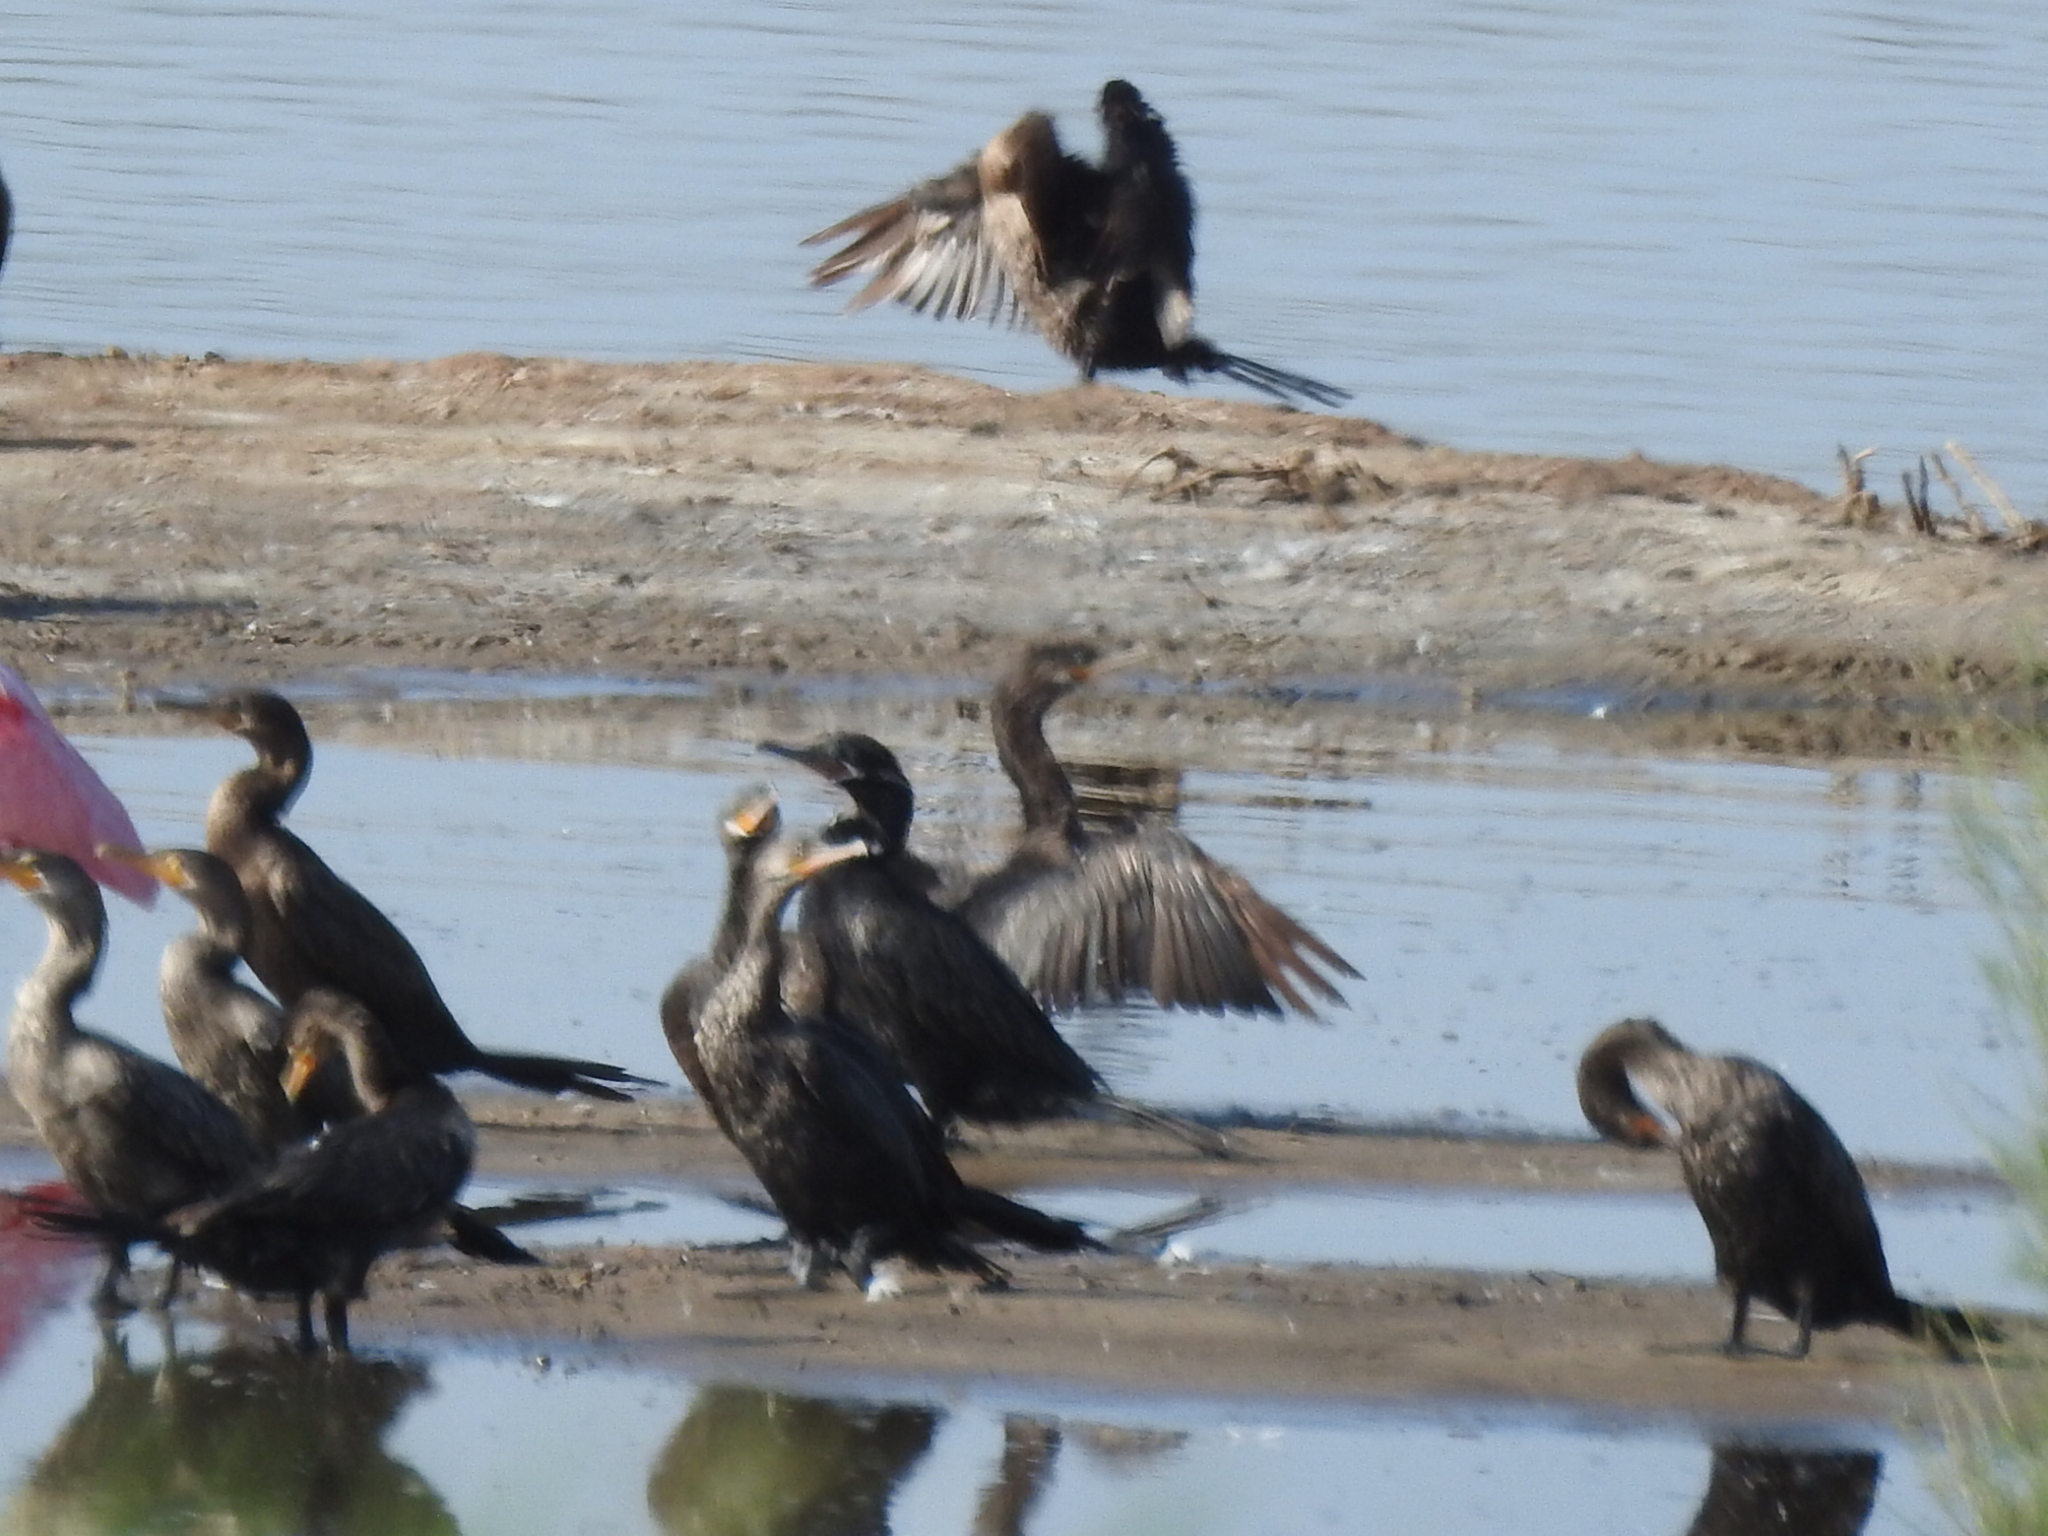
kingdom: Animalia
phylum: Chordata
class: Aves
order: Suliformes
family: Phalacrocoracidae
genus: Phalacrocorax
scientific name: Phalacrocorax brasilianus
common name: Neotropic cormorant
